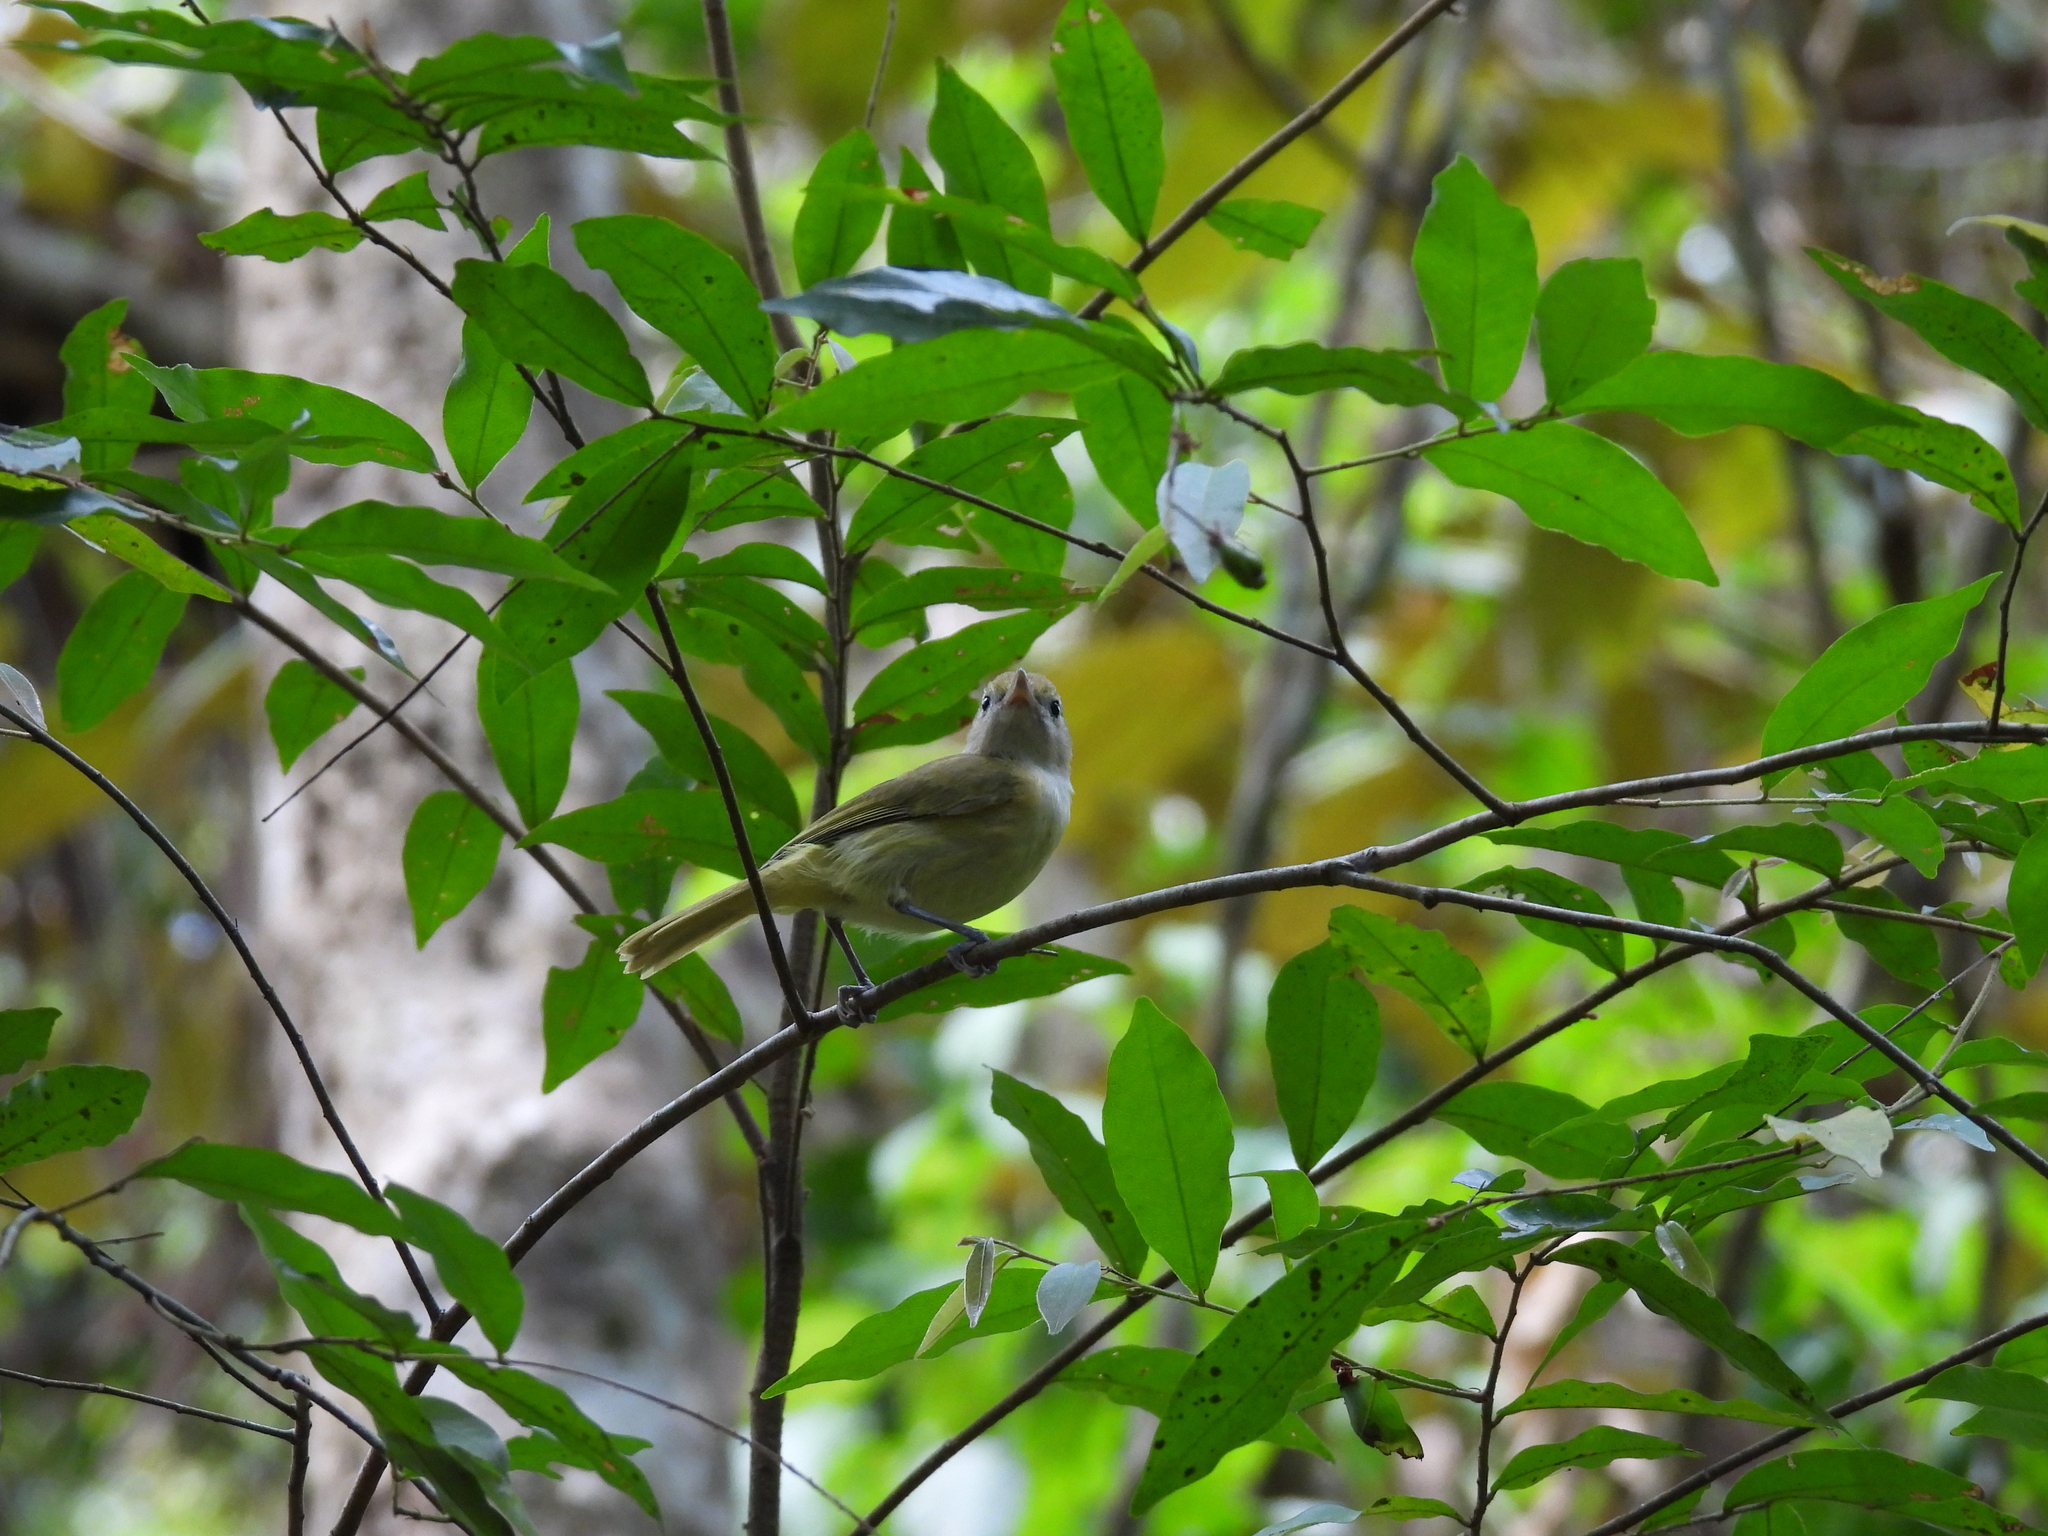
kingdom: Animalia
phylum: Chordata
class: Aves
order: Passeriformes
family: Vireonidae
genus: Hylophilus
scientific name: Hylophilus decurtatus
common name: Lesser greenlet
